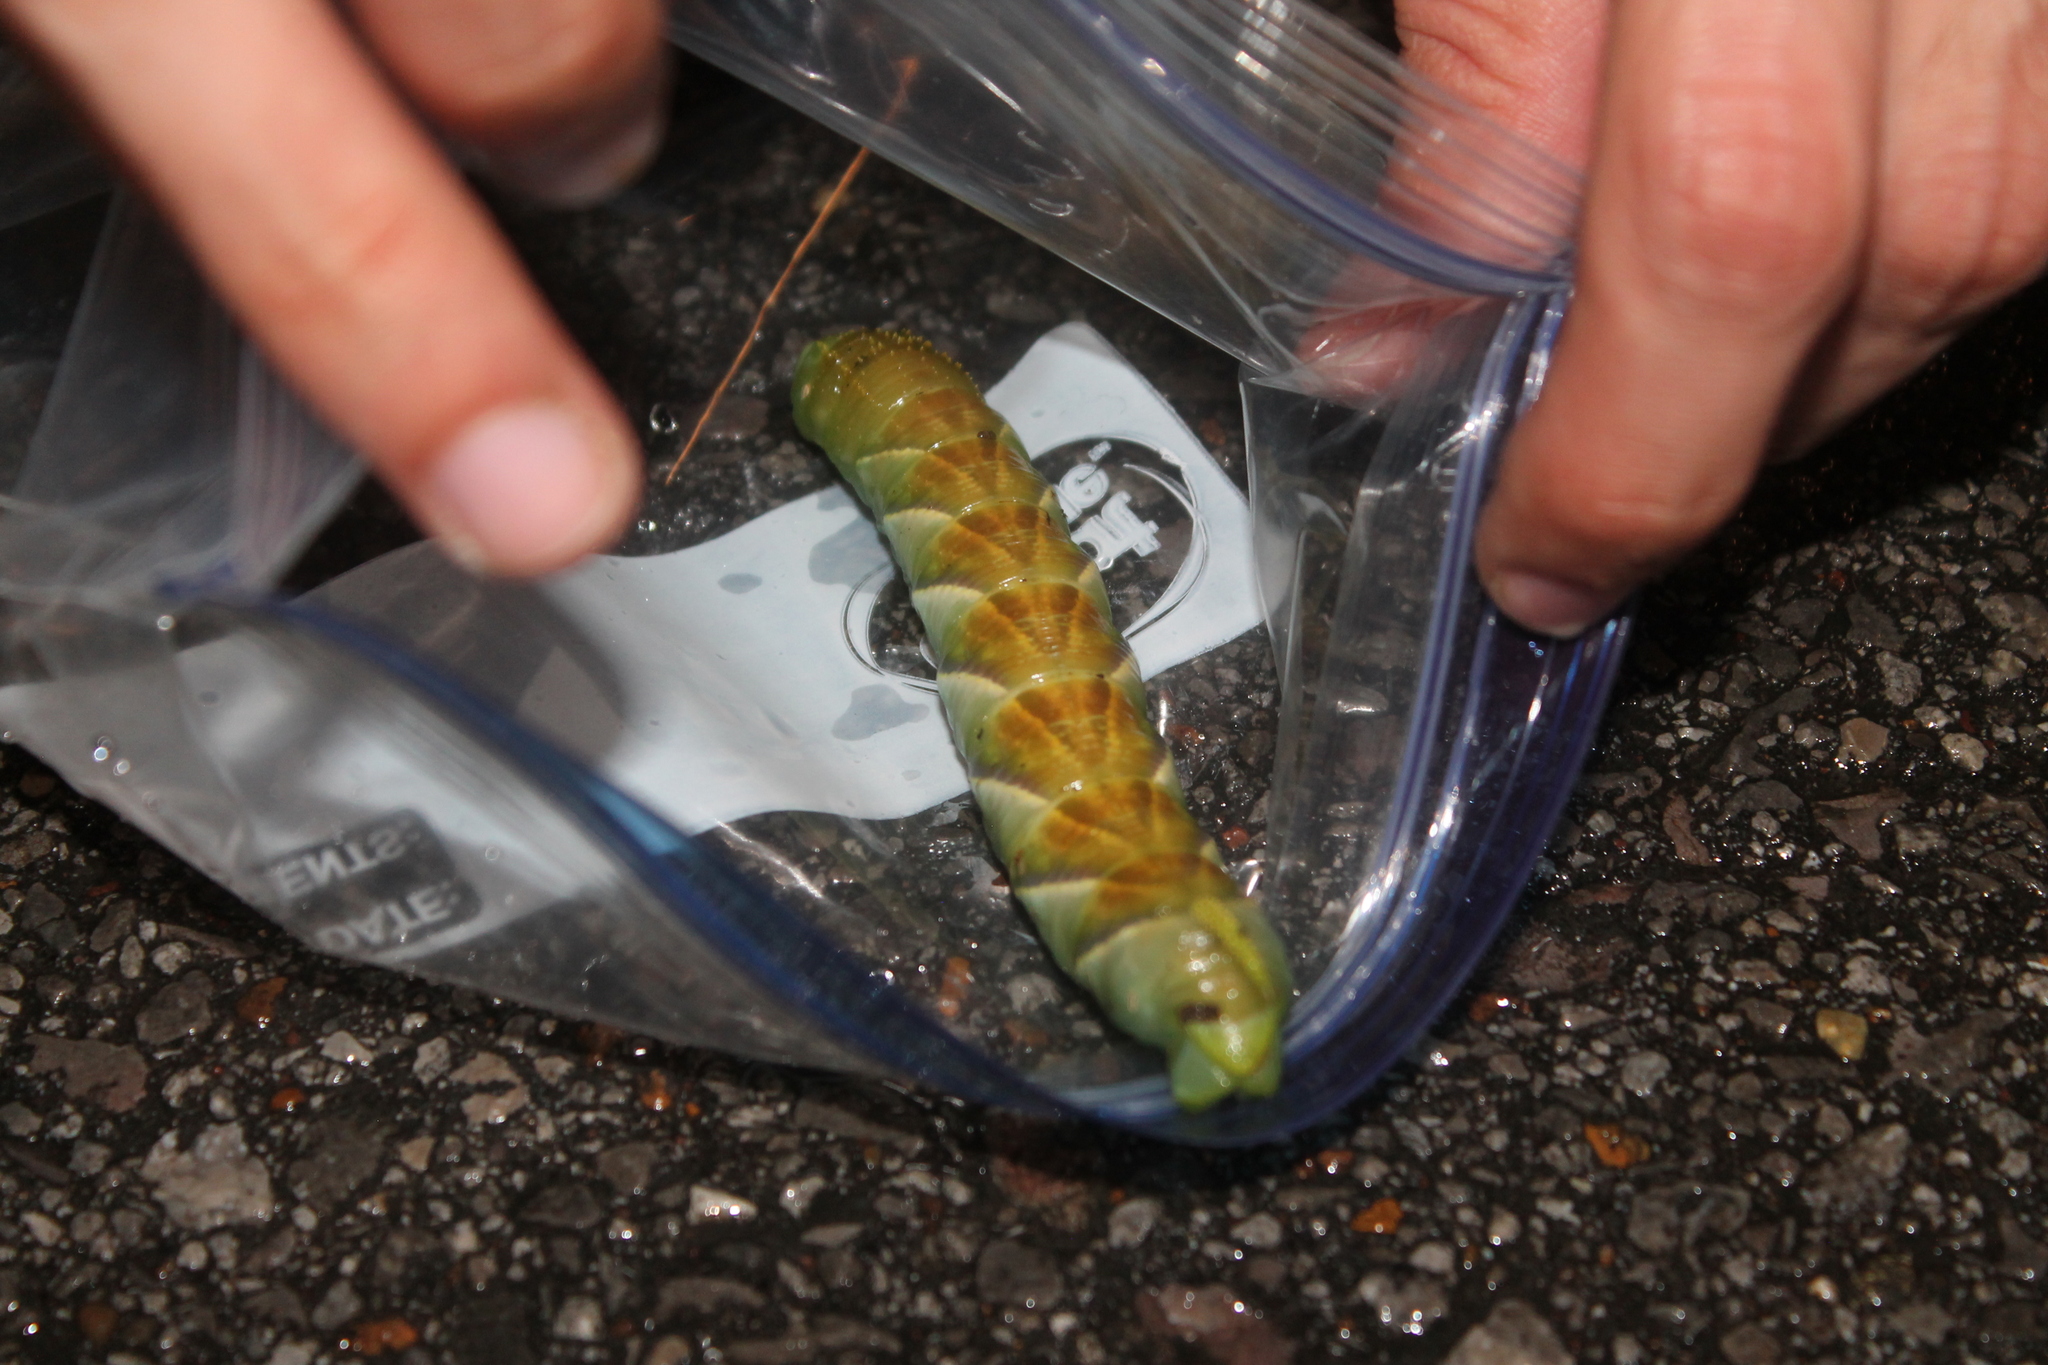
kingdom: Animalia
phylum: Arthropoda
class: Insecta
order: Lepidoptera
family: Sphingidae
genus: Manduca
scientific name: Manduca rustica
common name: Rustic sphinx
